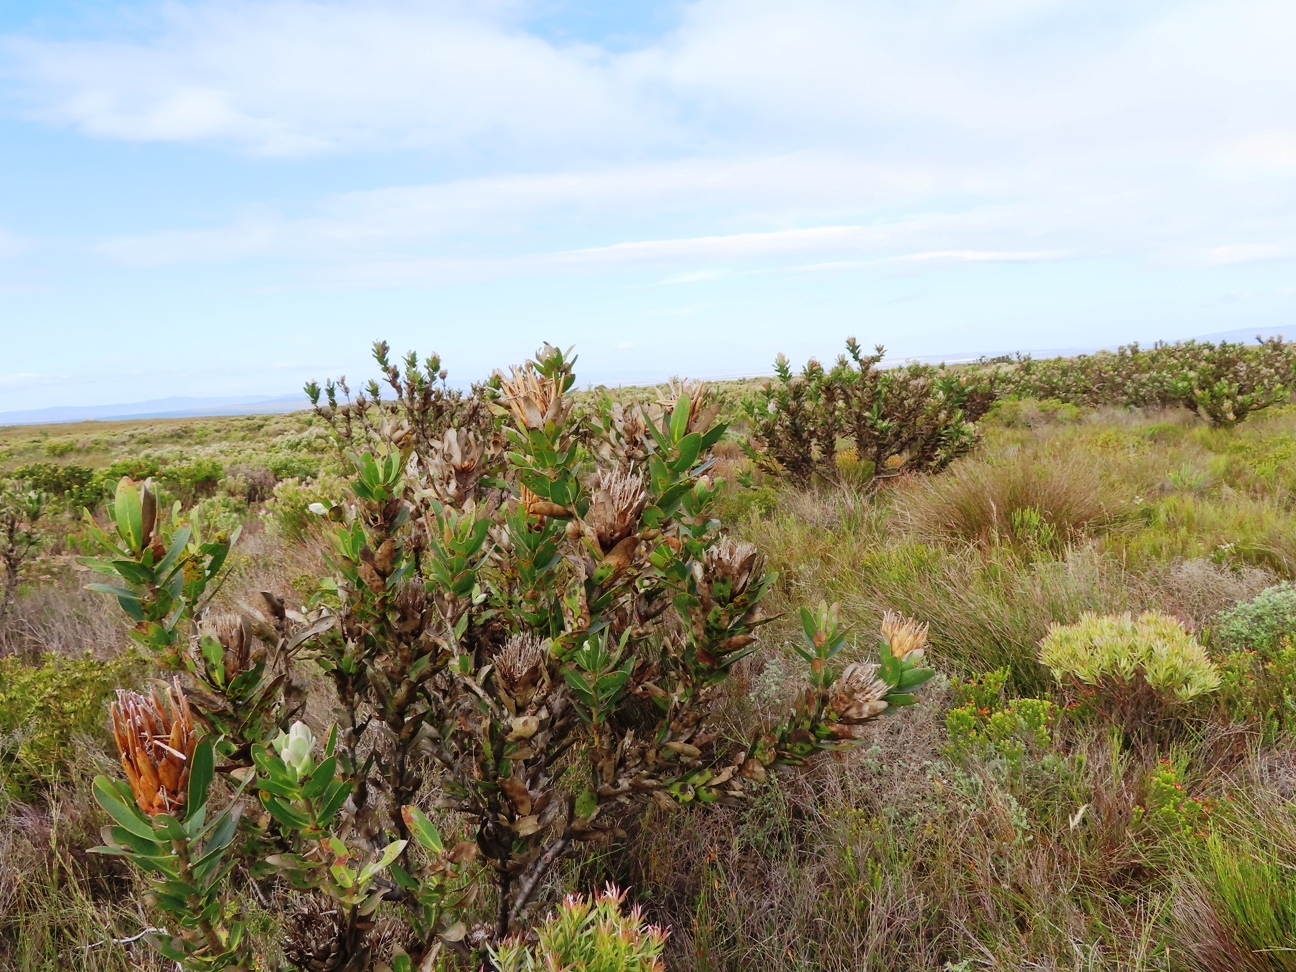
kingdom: Plantae
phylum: Tracheophyta
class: Magnoliopsida
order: Proteales
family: Proteaceae
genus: Protea
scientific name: Protea compacta
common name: Bot river protea
